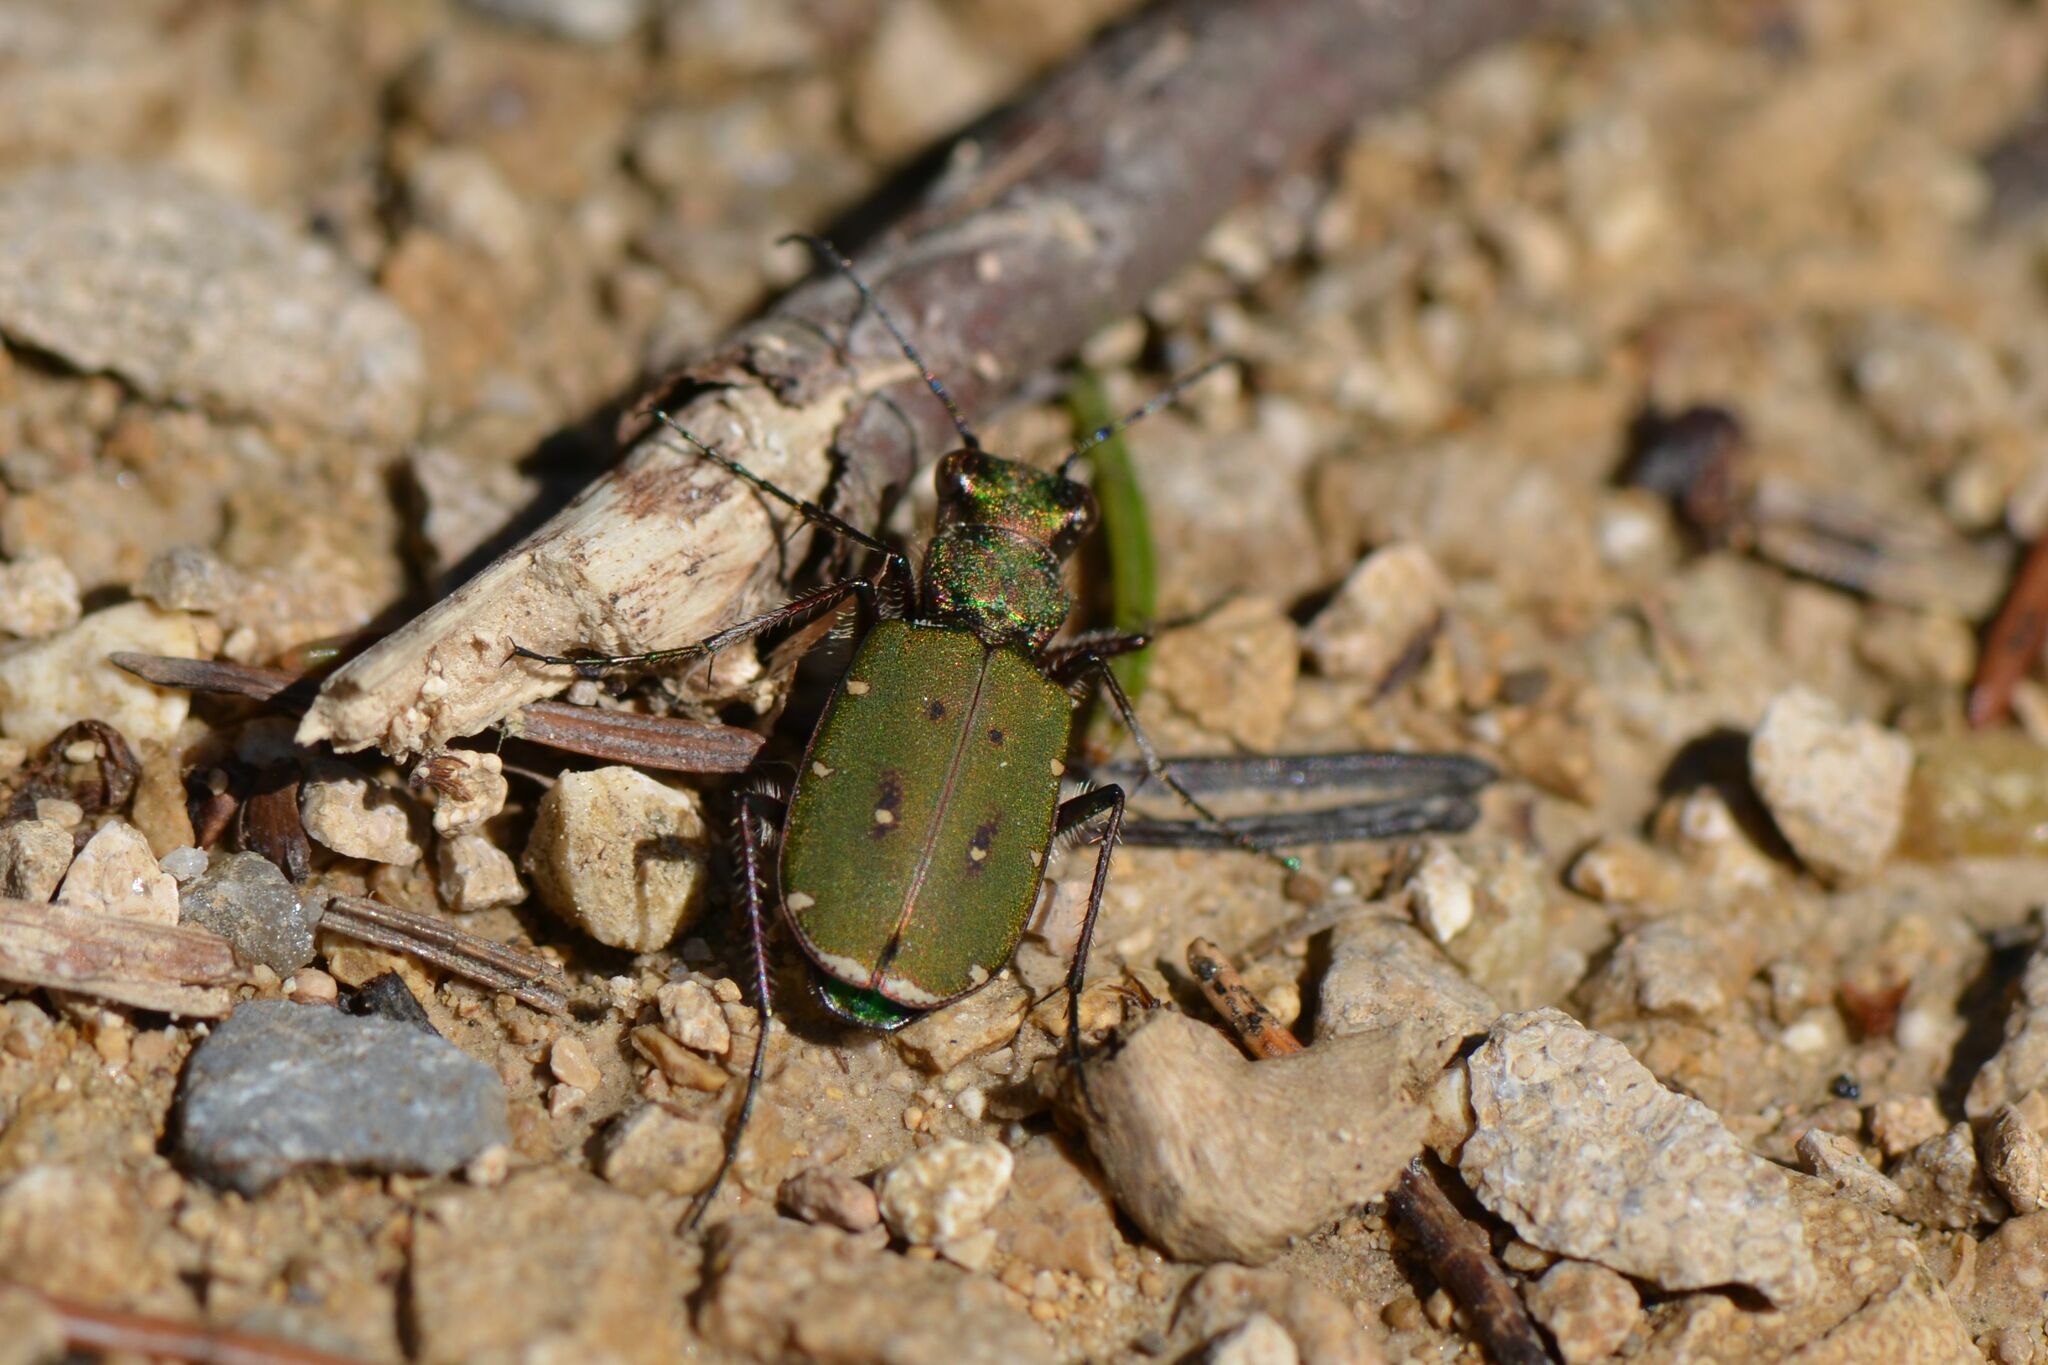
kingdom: Animalia
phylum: Arthropoda
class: Insecta
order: Coleoptera
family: Carabidae
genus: Cicindela
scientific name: Cicindela campestris
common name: Common tiger beetle
